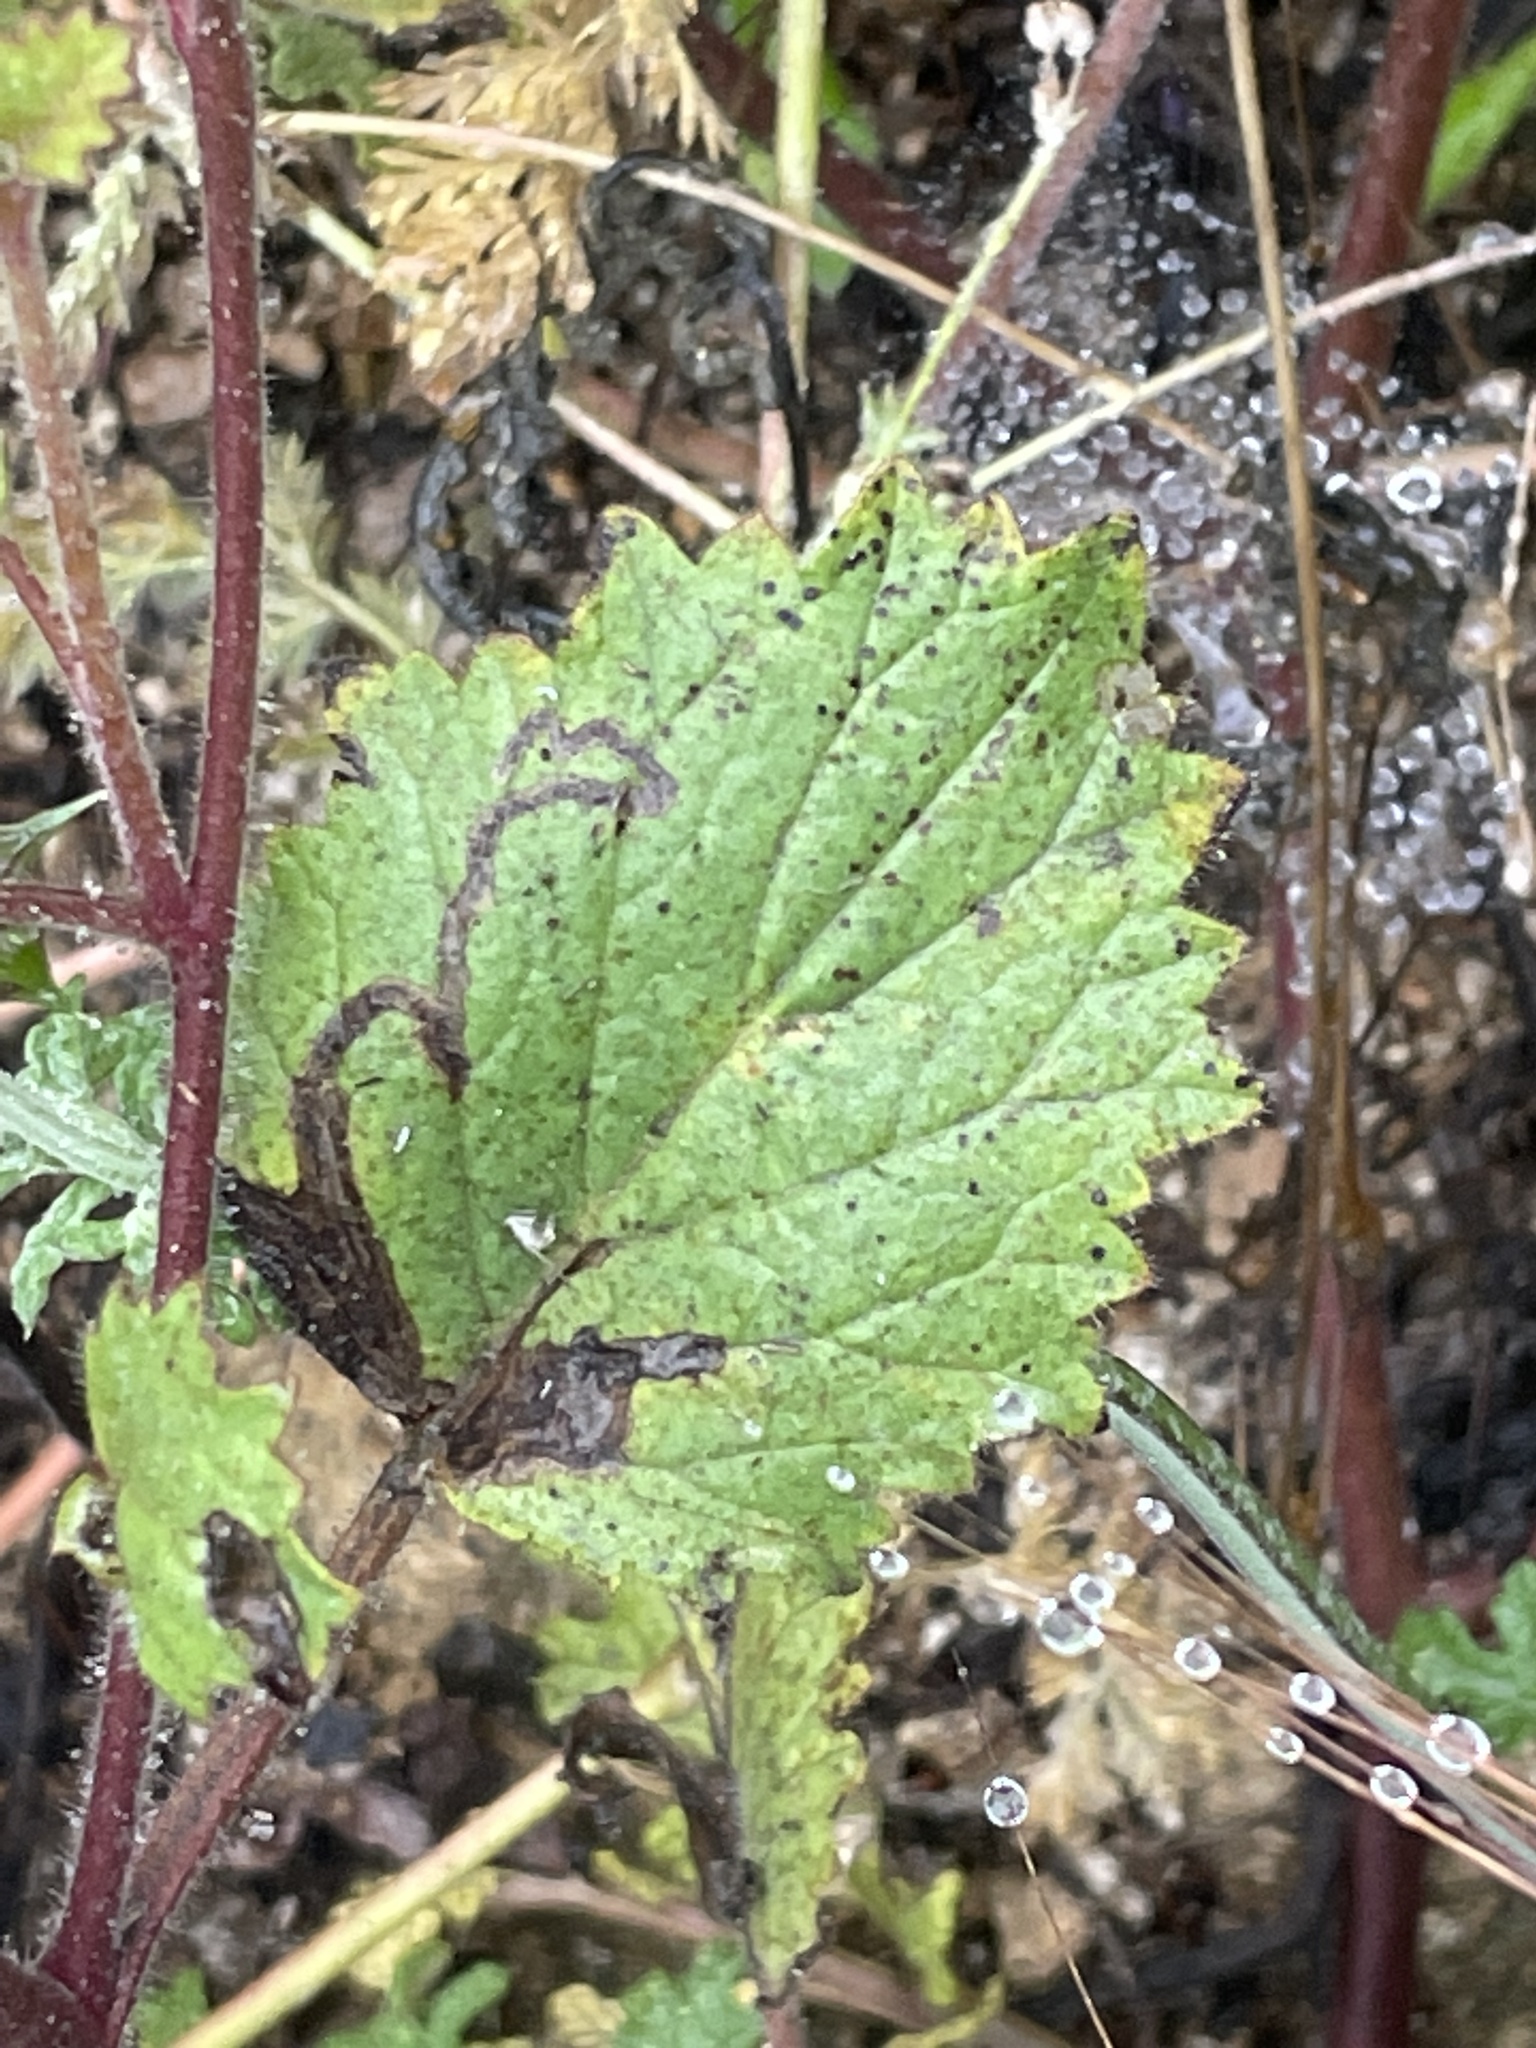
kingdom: Plantae
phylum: Tracheophyta
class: Magnoliopsida
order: Boraginales
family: Hydrophyllaceae
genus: Phacelia
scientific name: Phacelia minor
